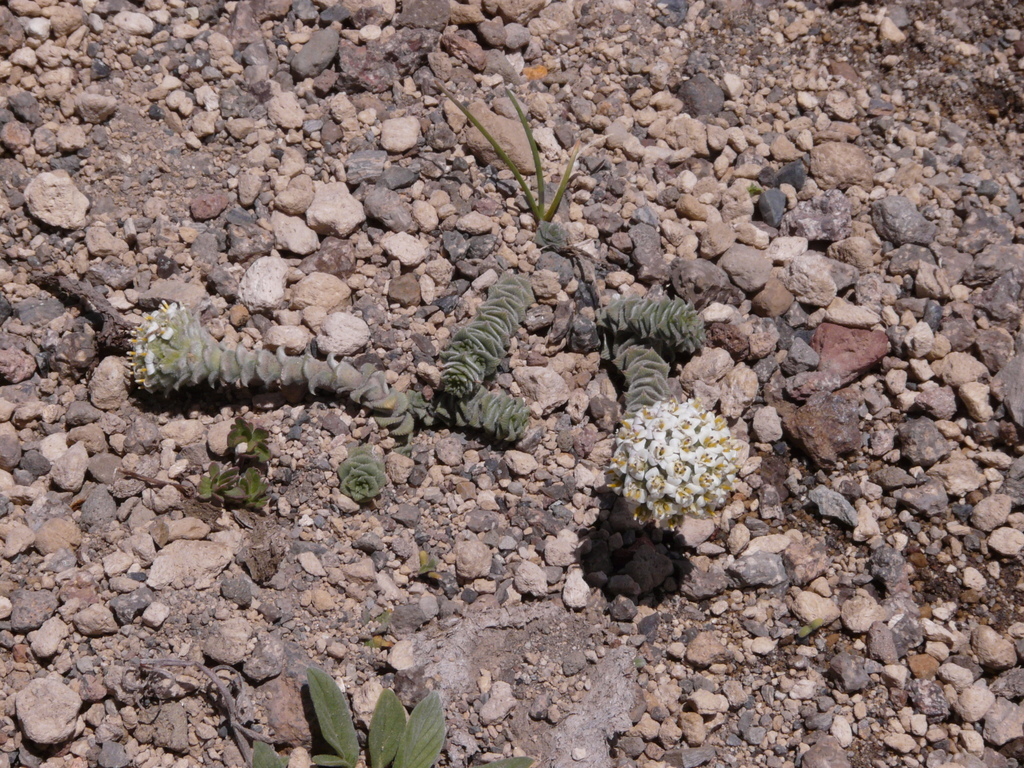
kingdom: Plantae
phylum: Tracheophyta
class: Magnoliopsida
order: Asterales
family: Asteraceae
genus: Nassauvia
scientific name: Nassauvia revoluta
